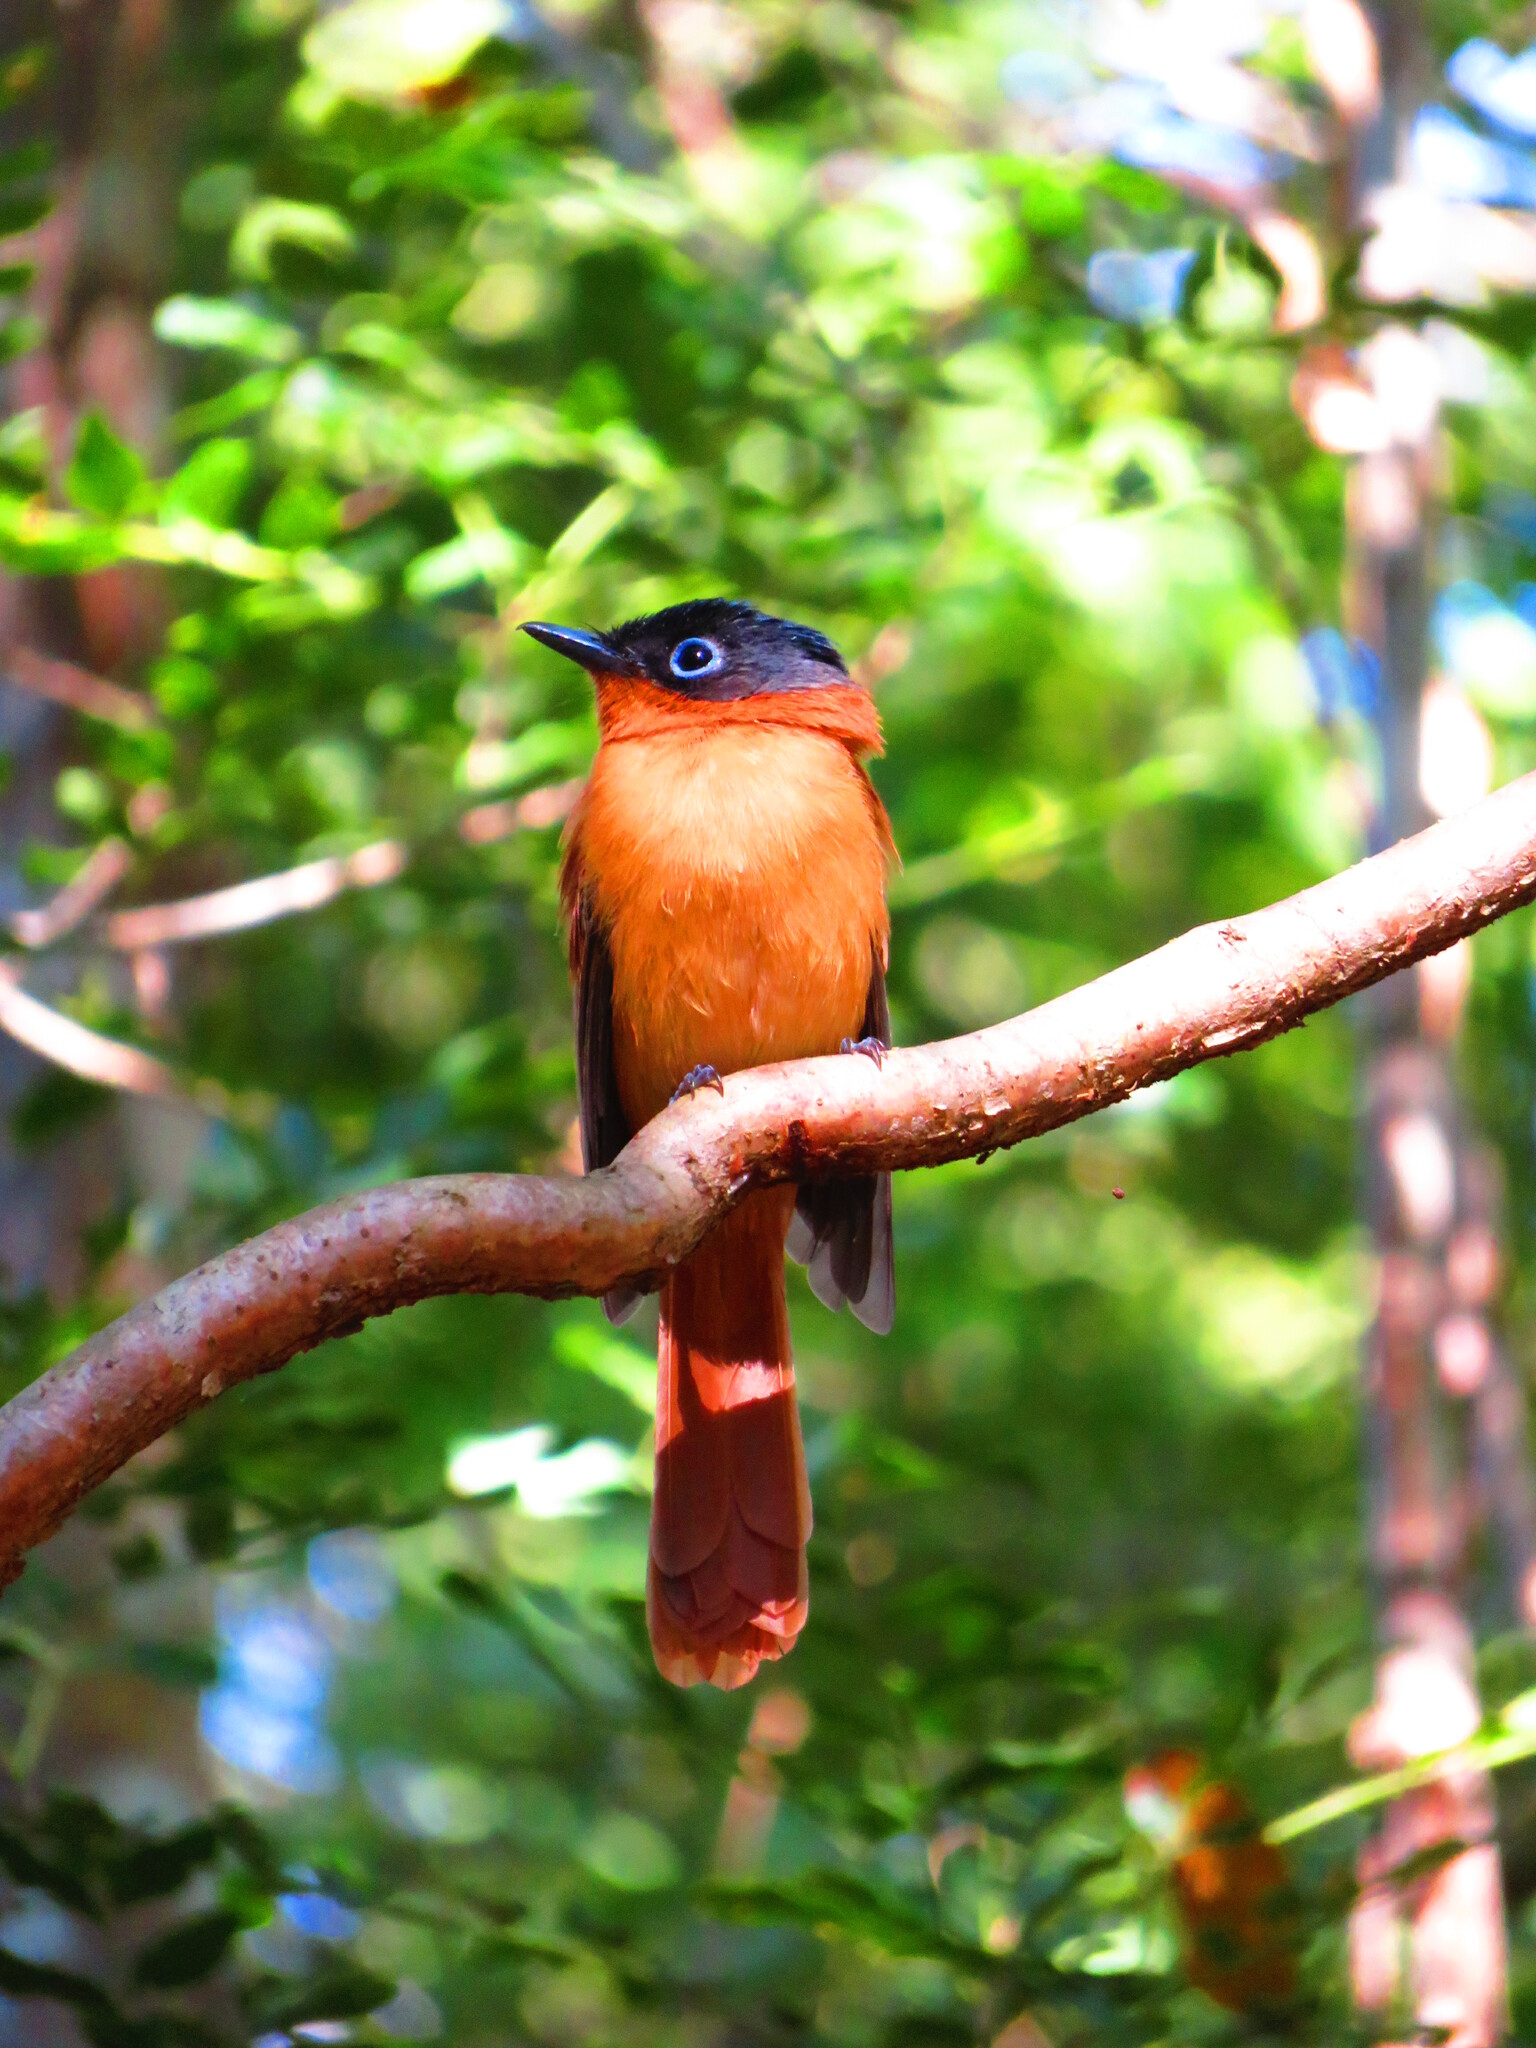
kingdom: Animalia
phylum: Chordata
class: Aves
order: Passeriformes
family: Monarchidae
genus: Terpsiphone
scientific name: Terpsiphone mutata
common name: Malagasy paradise flycatcher
